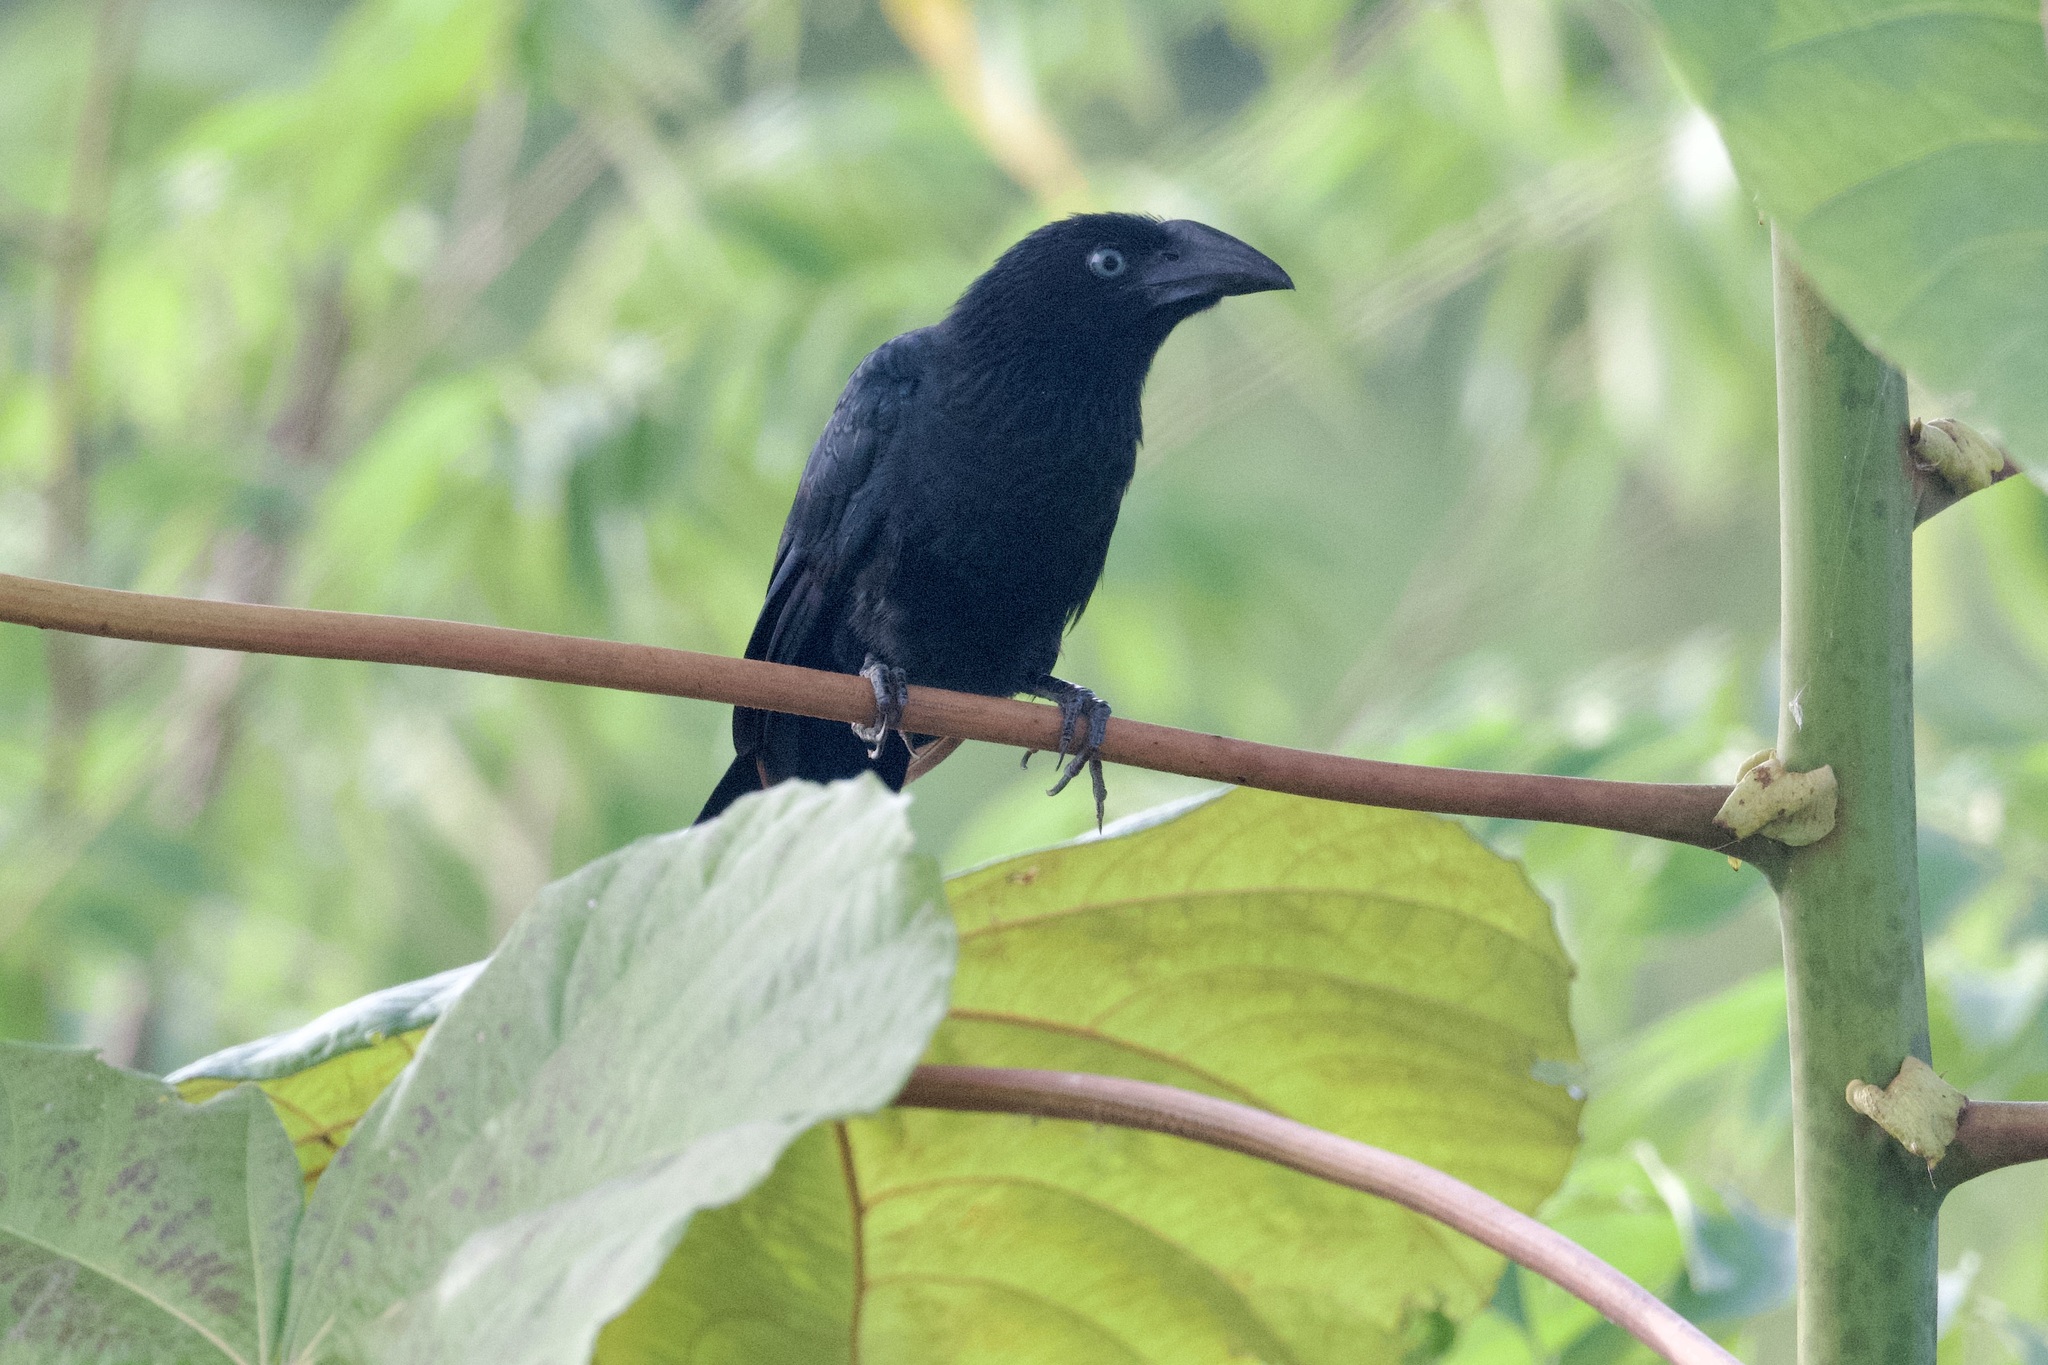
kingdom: Animalia
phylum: Chordata
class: Aves
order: Cuculiformes
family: Cuculidae
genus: Crotophaga
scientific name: Crotophaga major
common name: Greater ani
